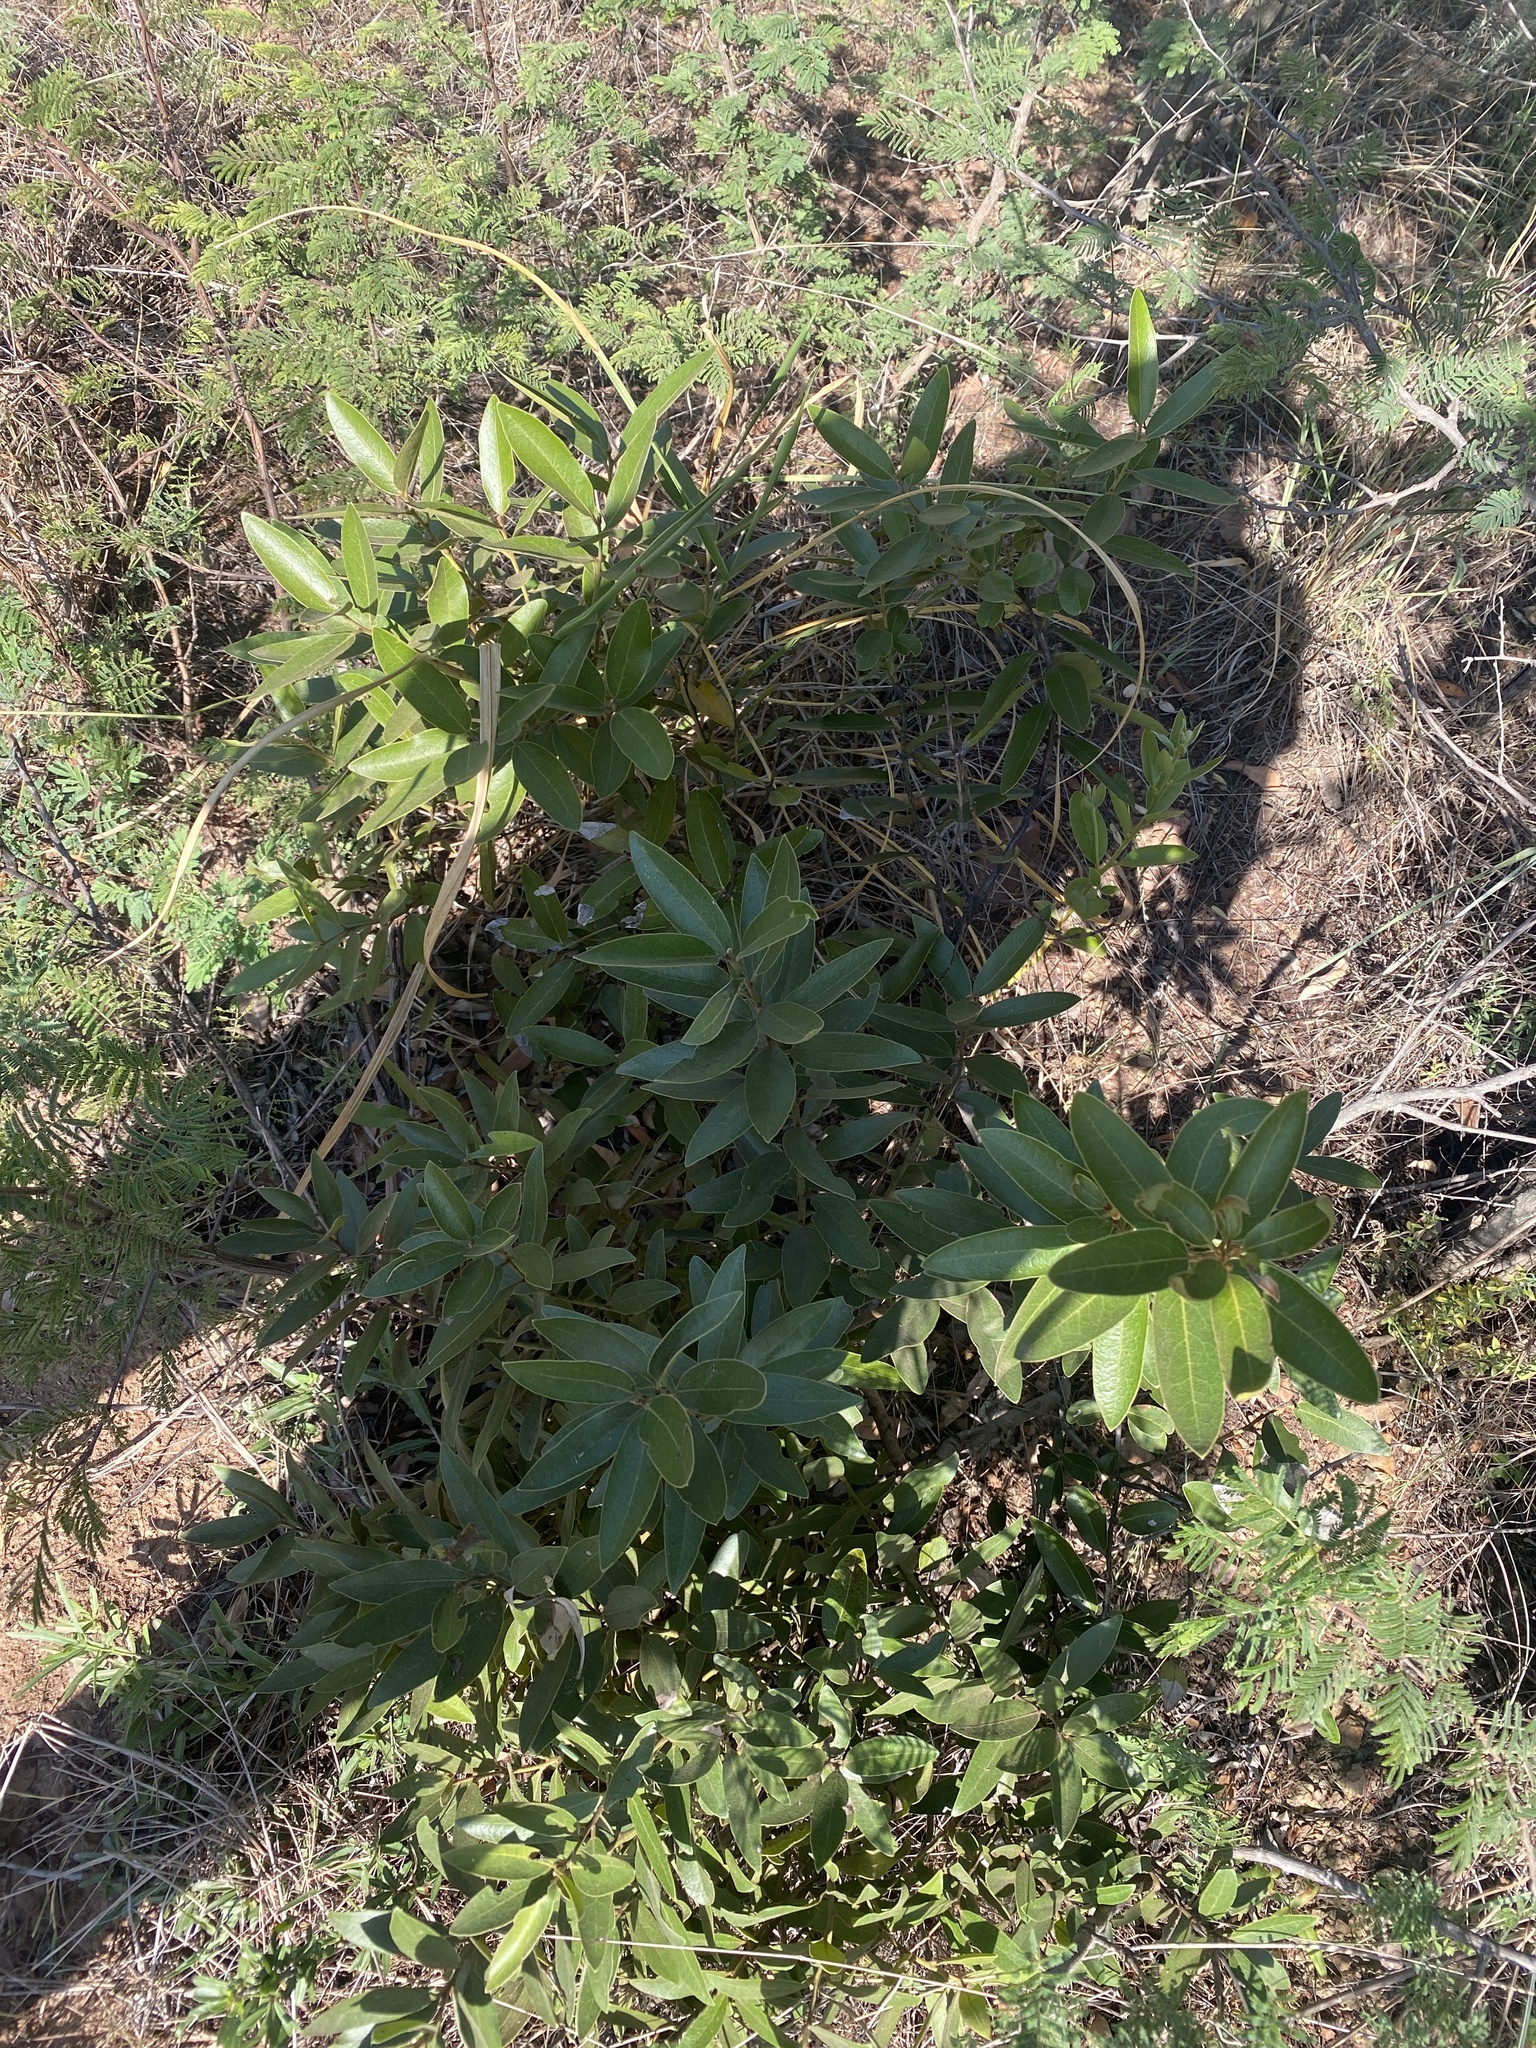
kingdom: Plantae
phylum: Tracheophyta
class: Magnoliopsida
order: Ericales
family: Ebenaceae
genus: Euclea
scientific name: Euclea natalensis
